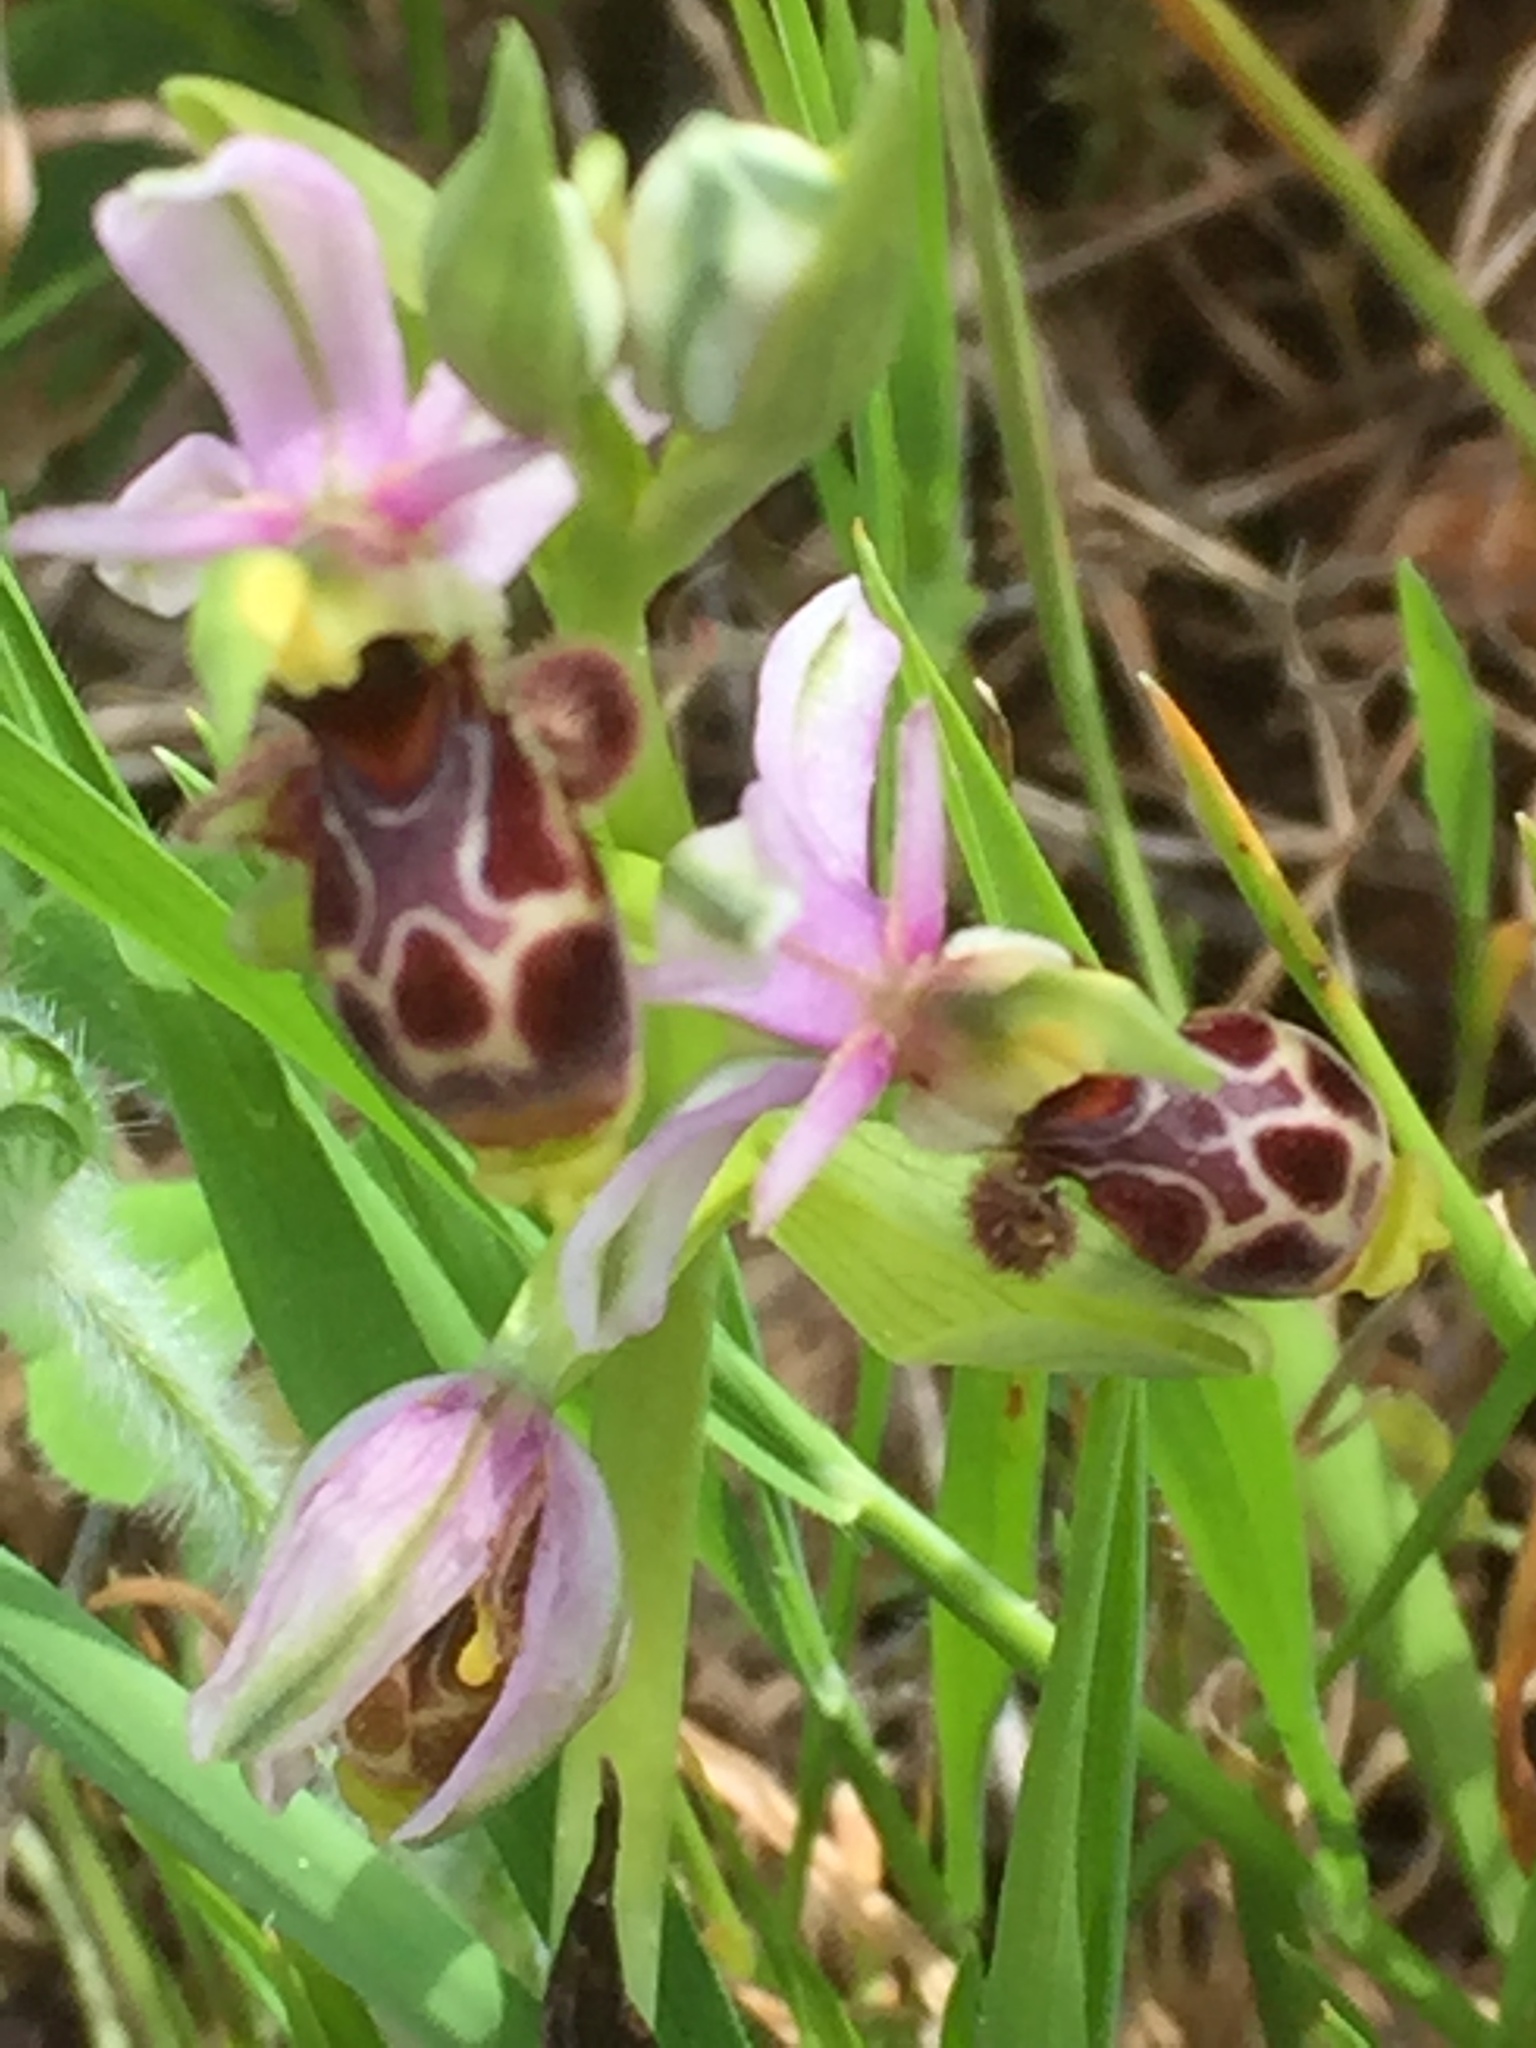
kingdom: Plantae
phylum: Tracheophyta
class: Liliopsida
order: Asparagales
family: Orchidaceae
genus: Ophrys
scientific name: Ophrys scolopax
